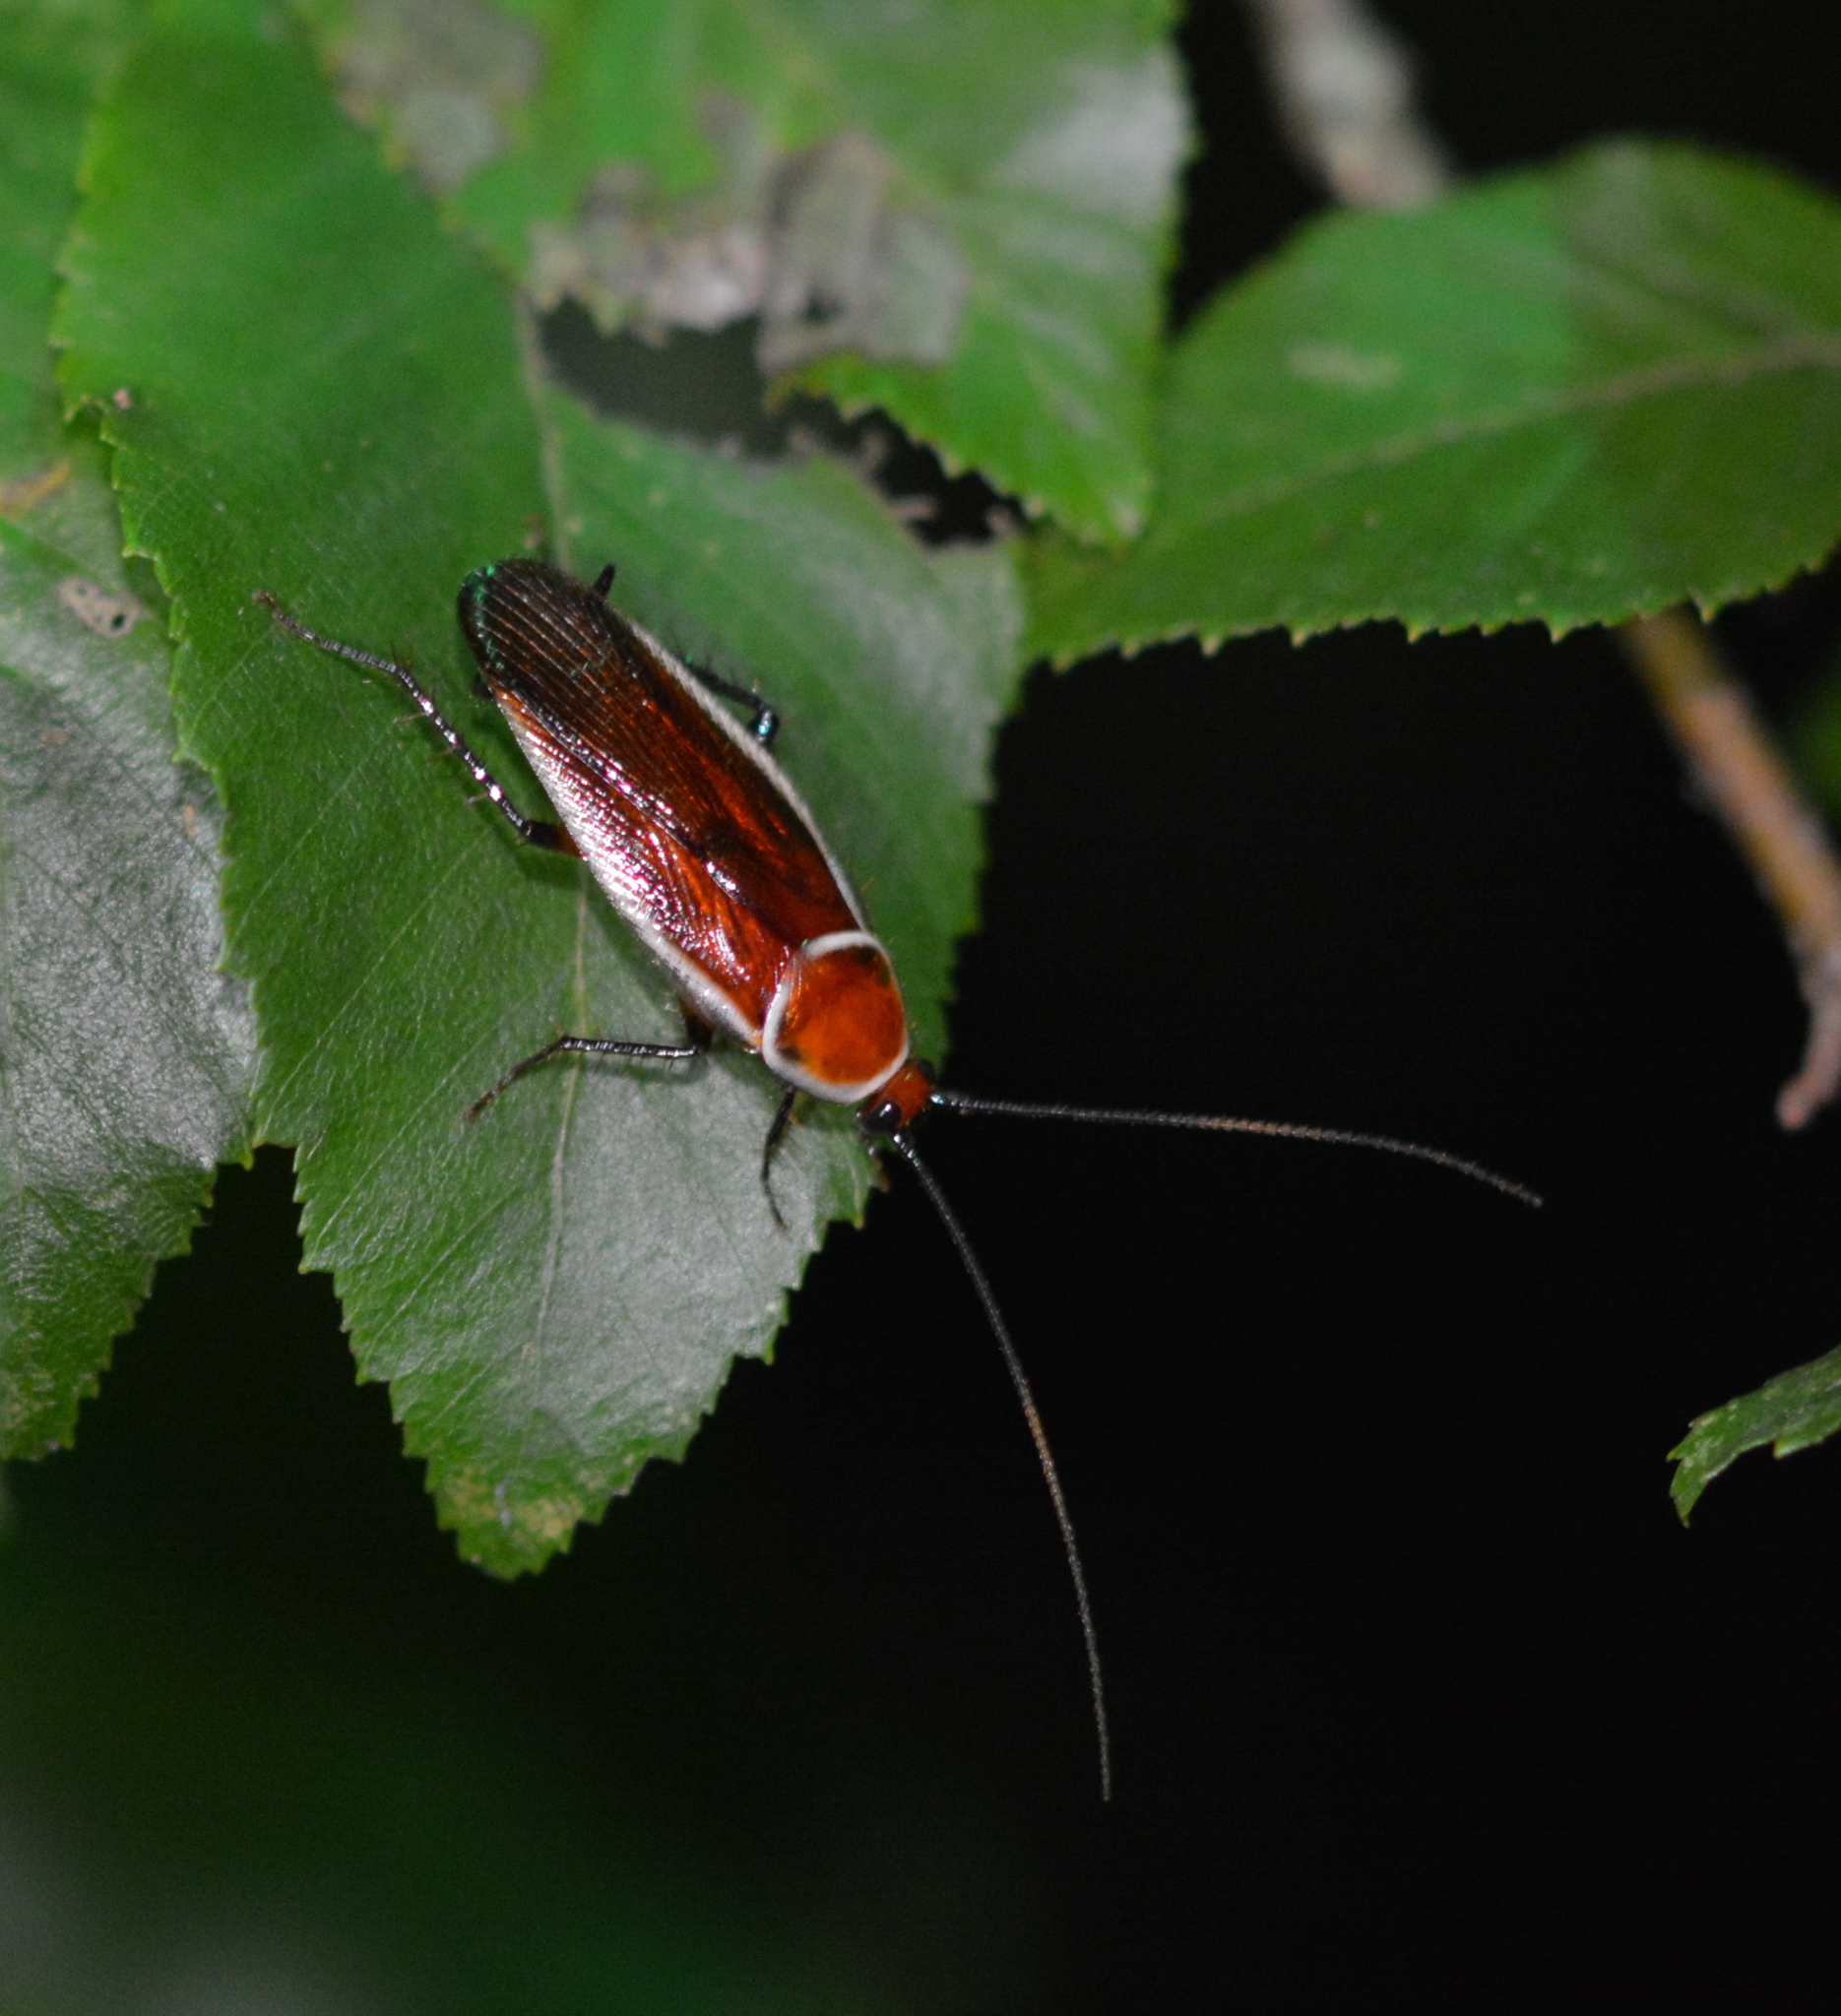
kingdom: Animalia
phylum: Arthropoda
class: Insecta
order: Blattodea
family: Ectobiidae
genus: Pseudomops
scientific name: Pseudomops septentrionalis
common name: Pale-bordered field cockroach
